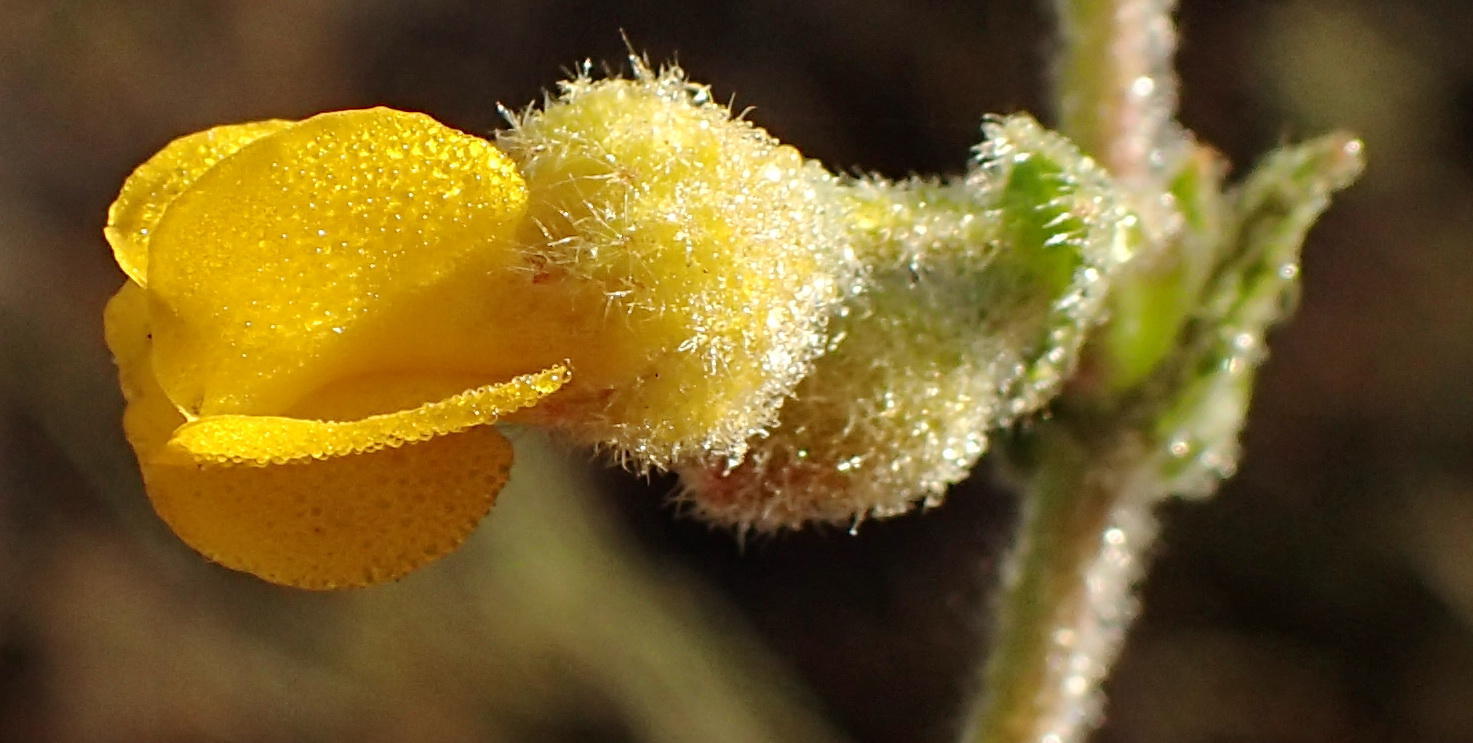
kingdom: Plantae
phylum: Tracheophyta
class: Magnoliopsida
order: Malvales
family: Malvaceae
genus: Hermannia
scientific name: Hermannia stipulacea
